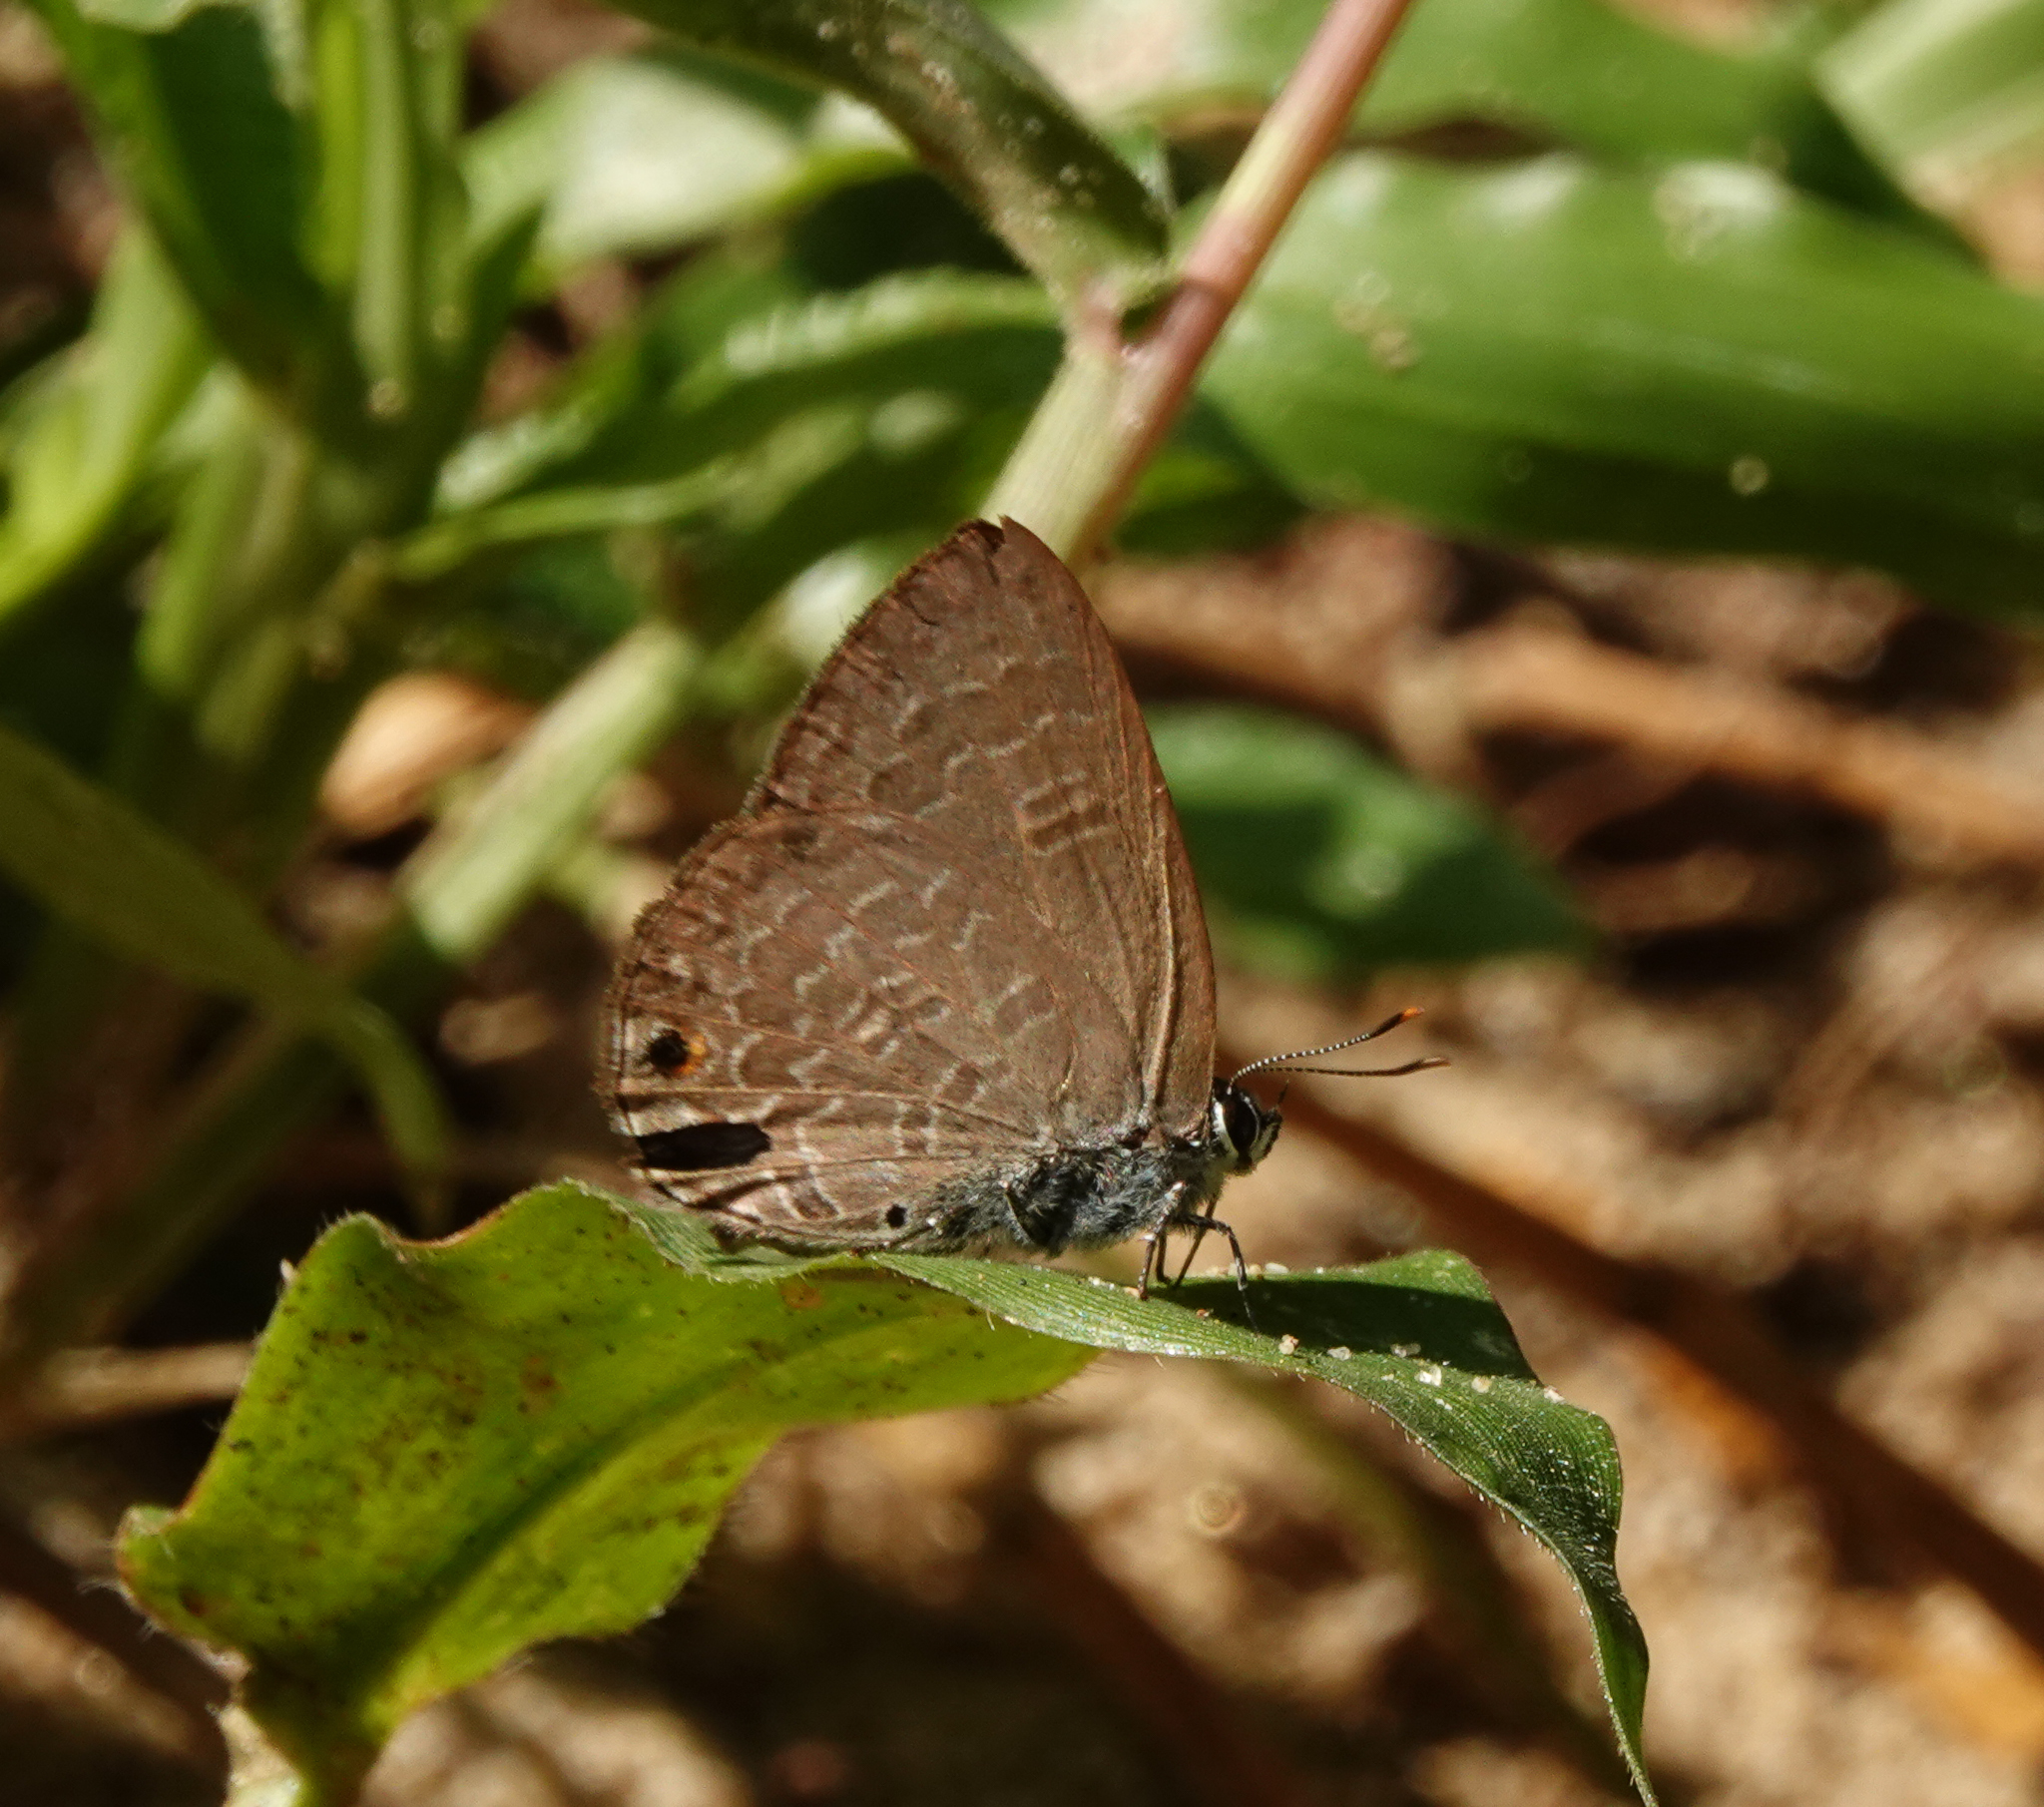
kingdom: Animalia
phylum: Arthropoda
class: Insecta
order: Lepidoptera
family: Lycaenidae
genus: Anthene
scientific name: Anthene emolus
